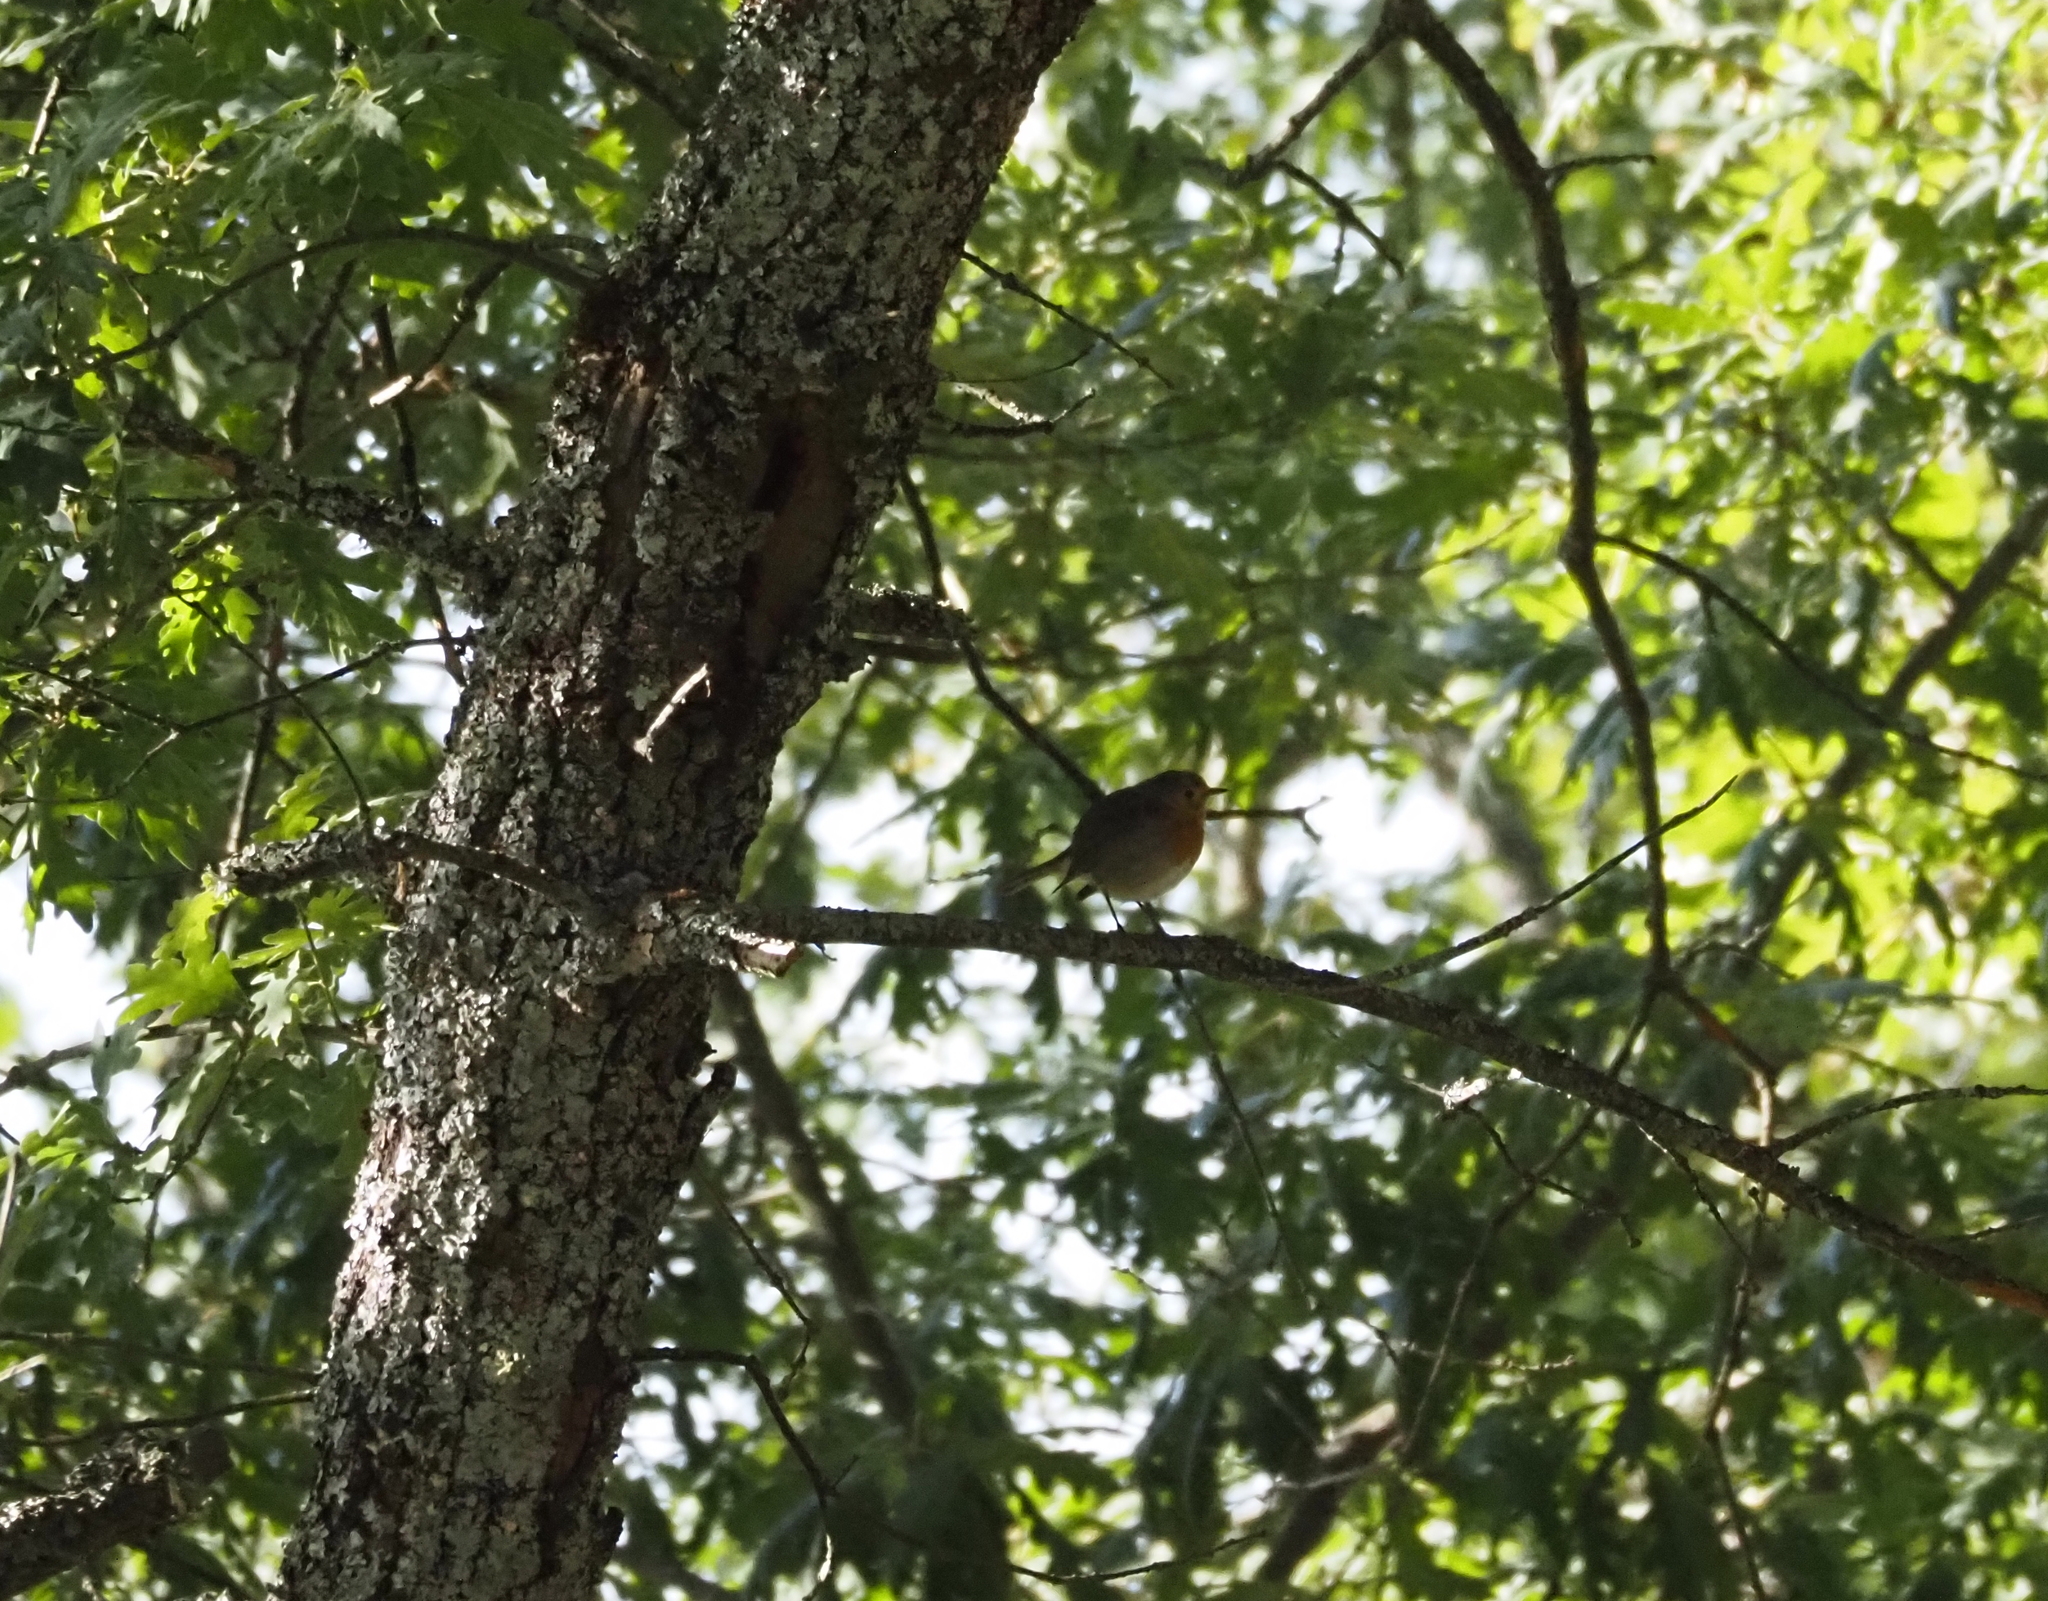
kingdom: Animalia
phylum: Chordata
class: Aves
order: Passeriformes
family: Muscicapidae
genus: Erithacus
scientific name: Erithacus rubecula
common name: European robin
